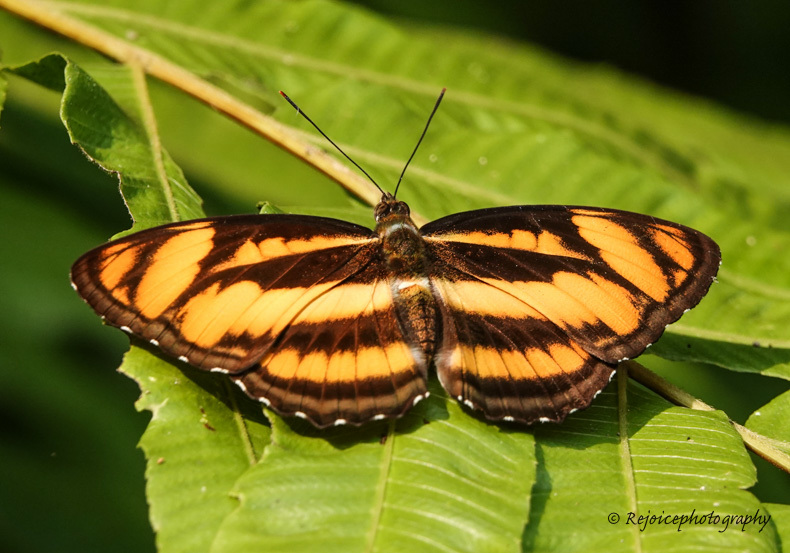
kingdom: Animalia
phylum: Arthropoda
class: Insecta
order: Lepidoptera
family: Nymphalidae
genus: Parathyma
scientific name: Parathyma nefte
